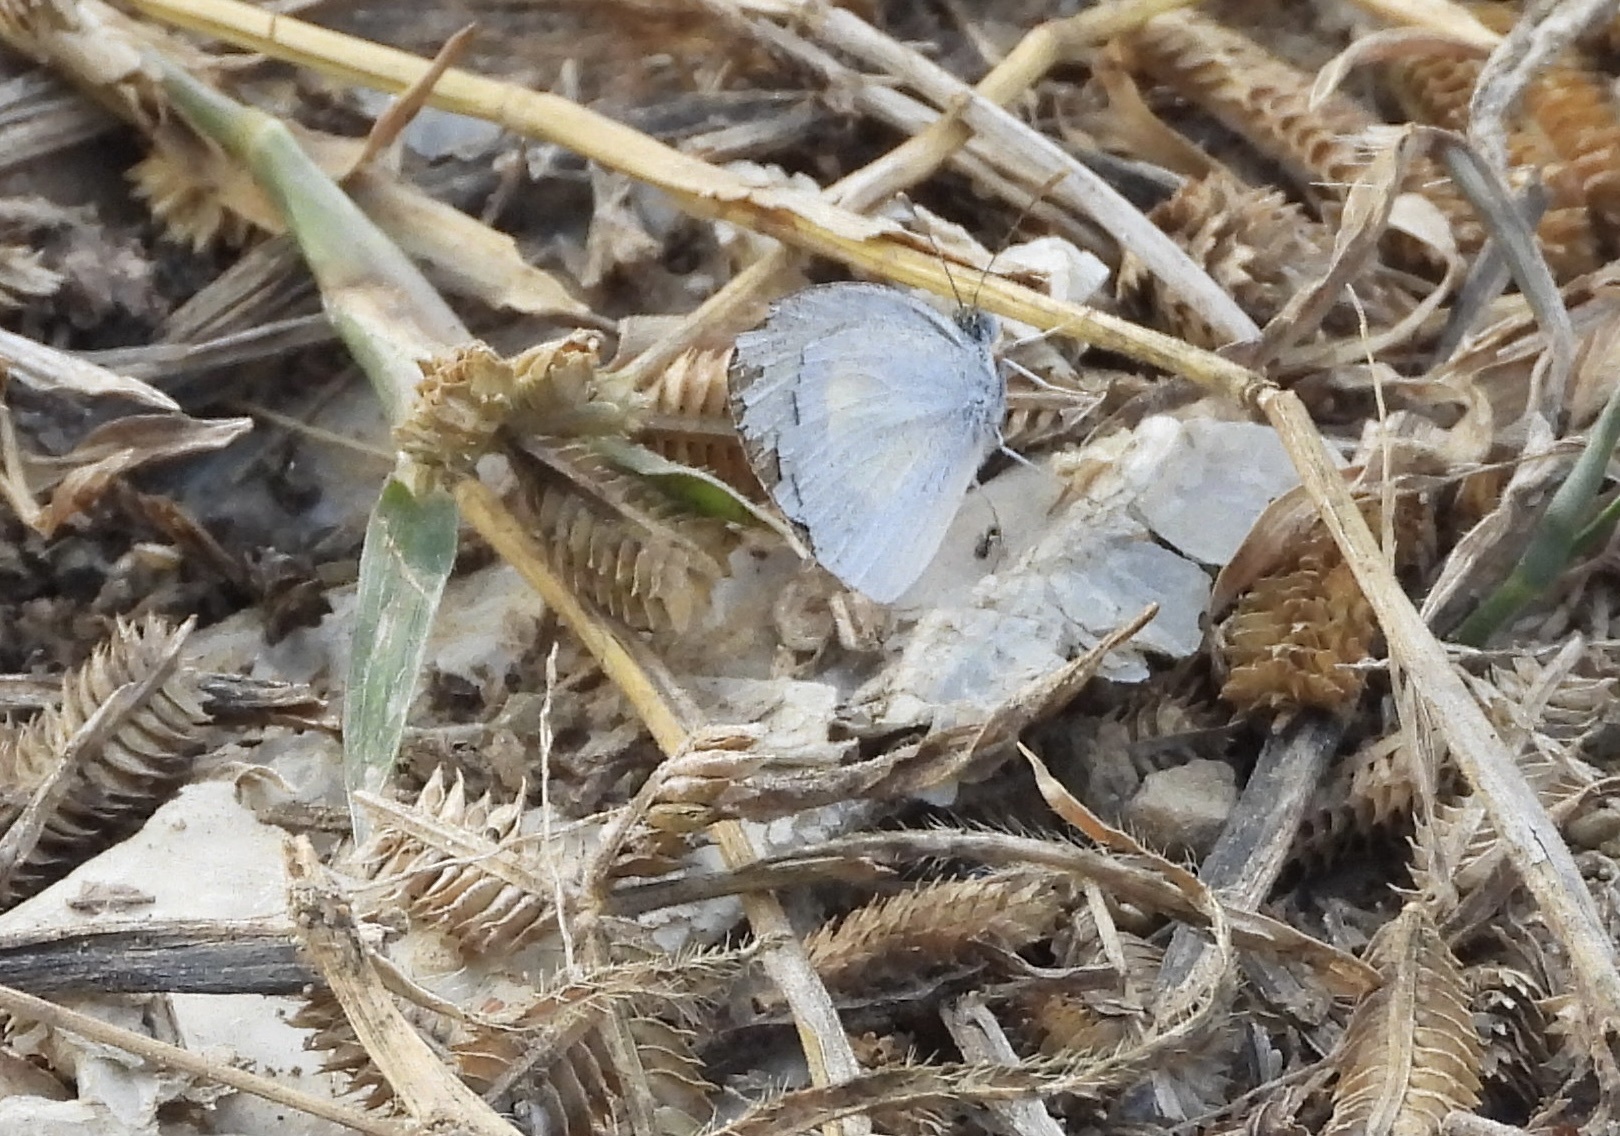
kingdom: Animalia
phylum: Arthropoda
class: Insecta
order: Lepidoptera
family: Pieridae
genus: Eurema
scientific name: Eurema daira
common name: Barred sulphur
